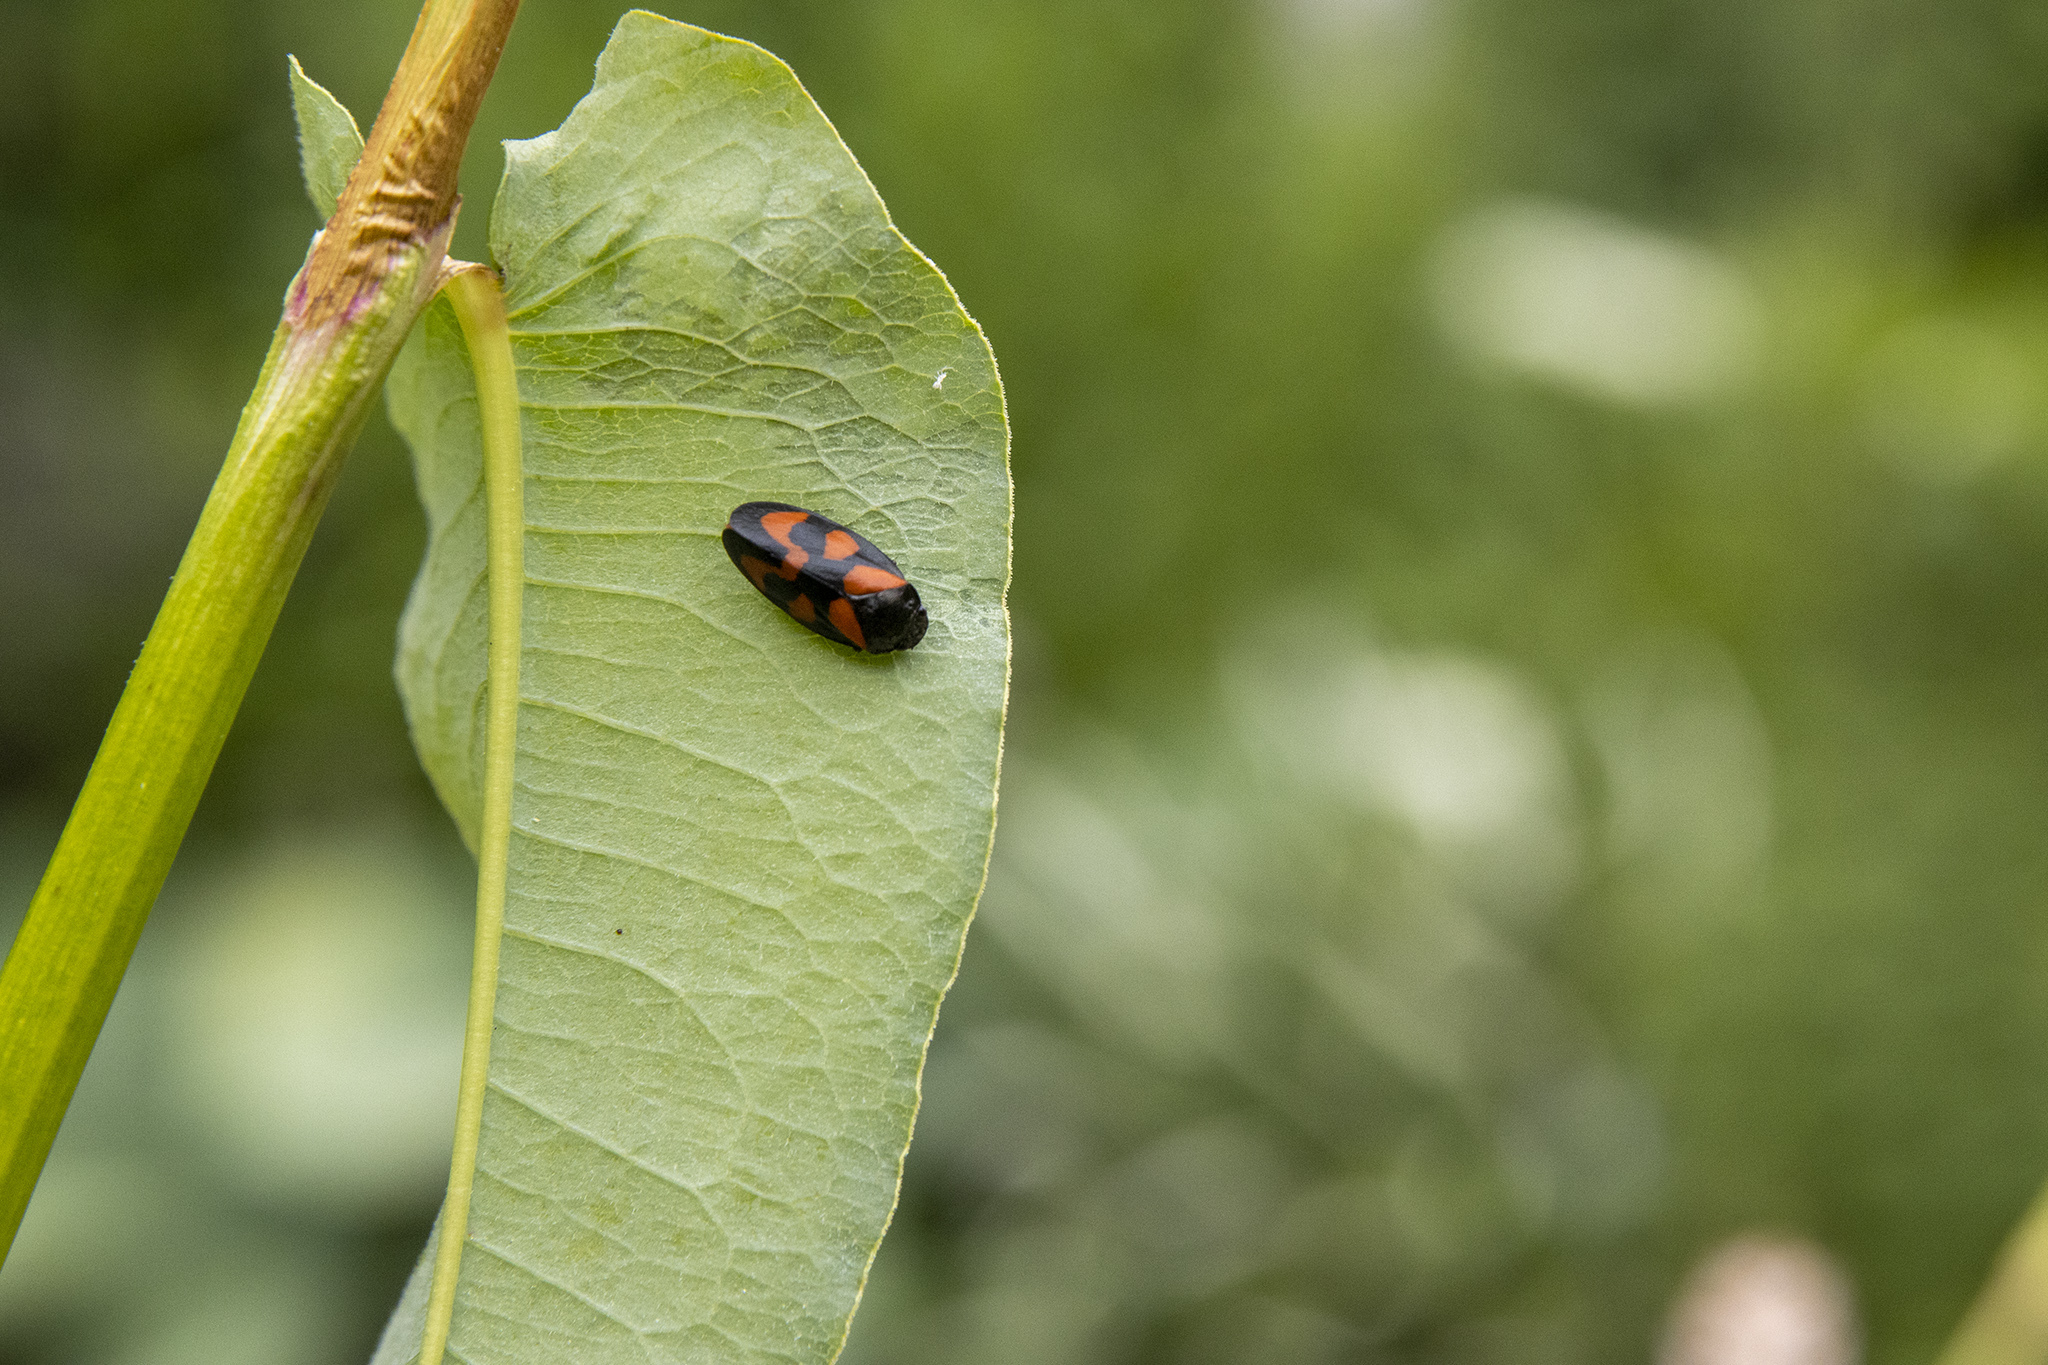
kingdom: Animalia
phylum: Arthropoda
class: Insecta
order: Hemiptera
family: Cercopidae
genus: Cercopis
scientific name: Cercopis vulnerata
